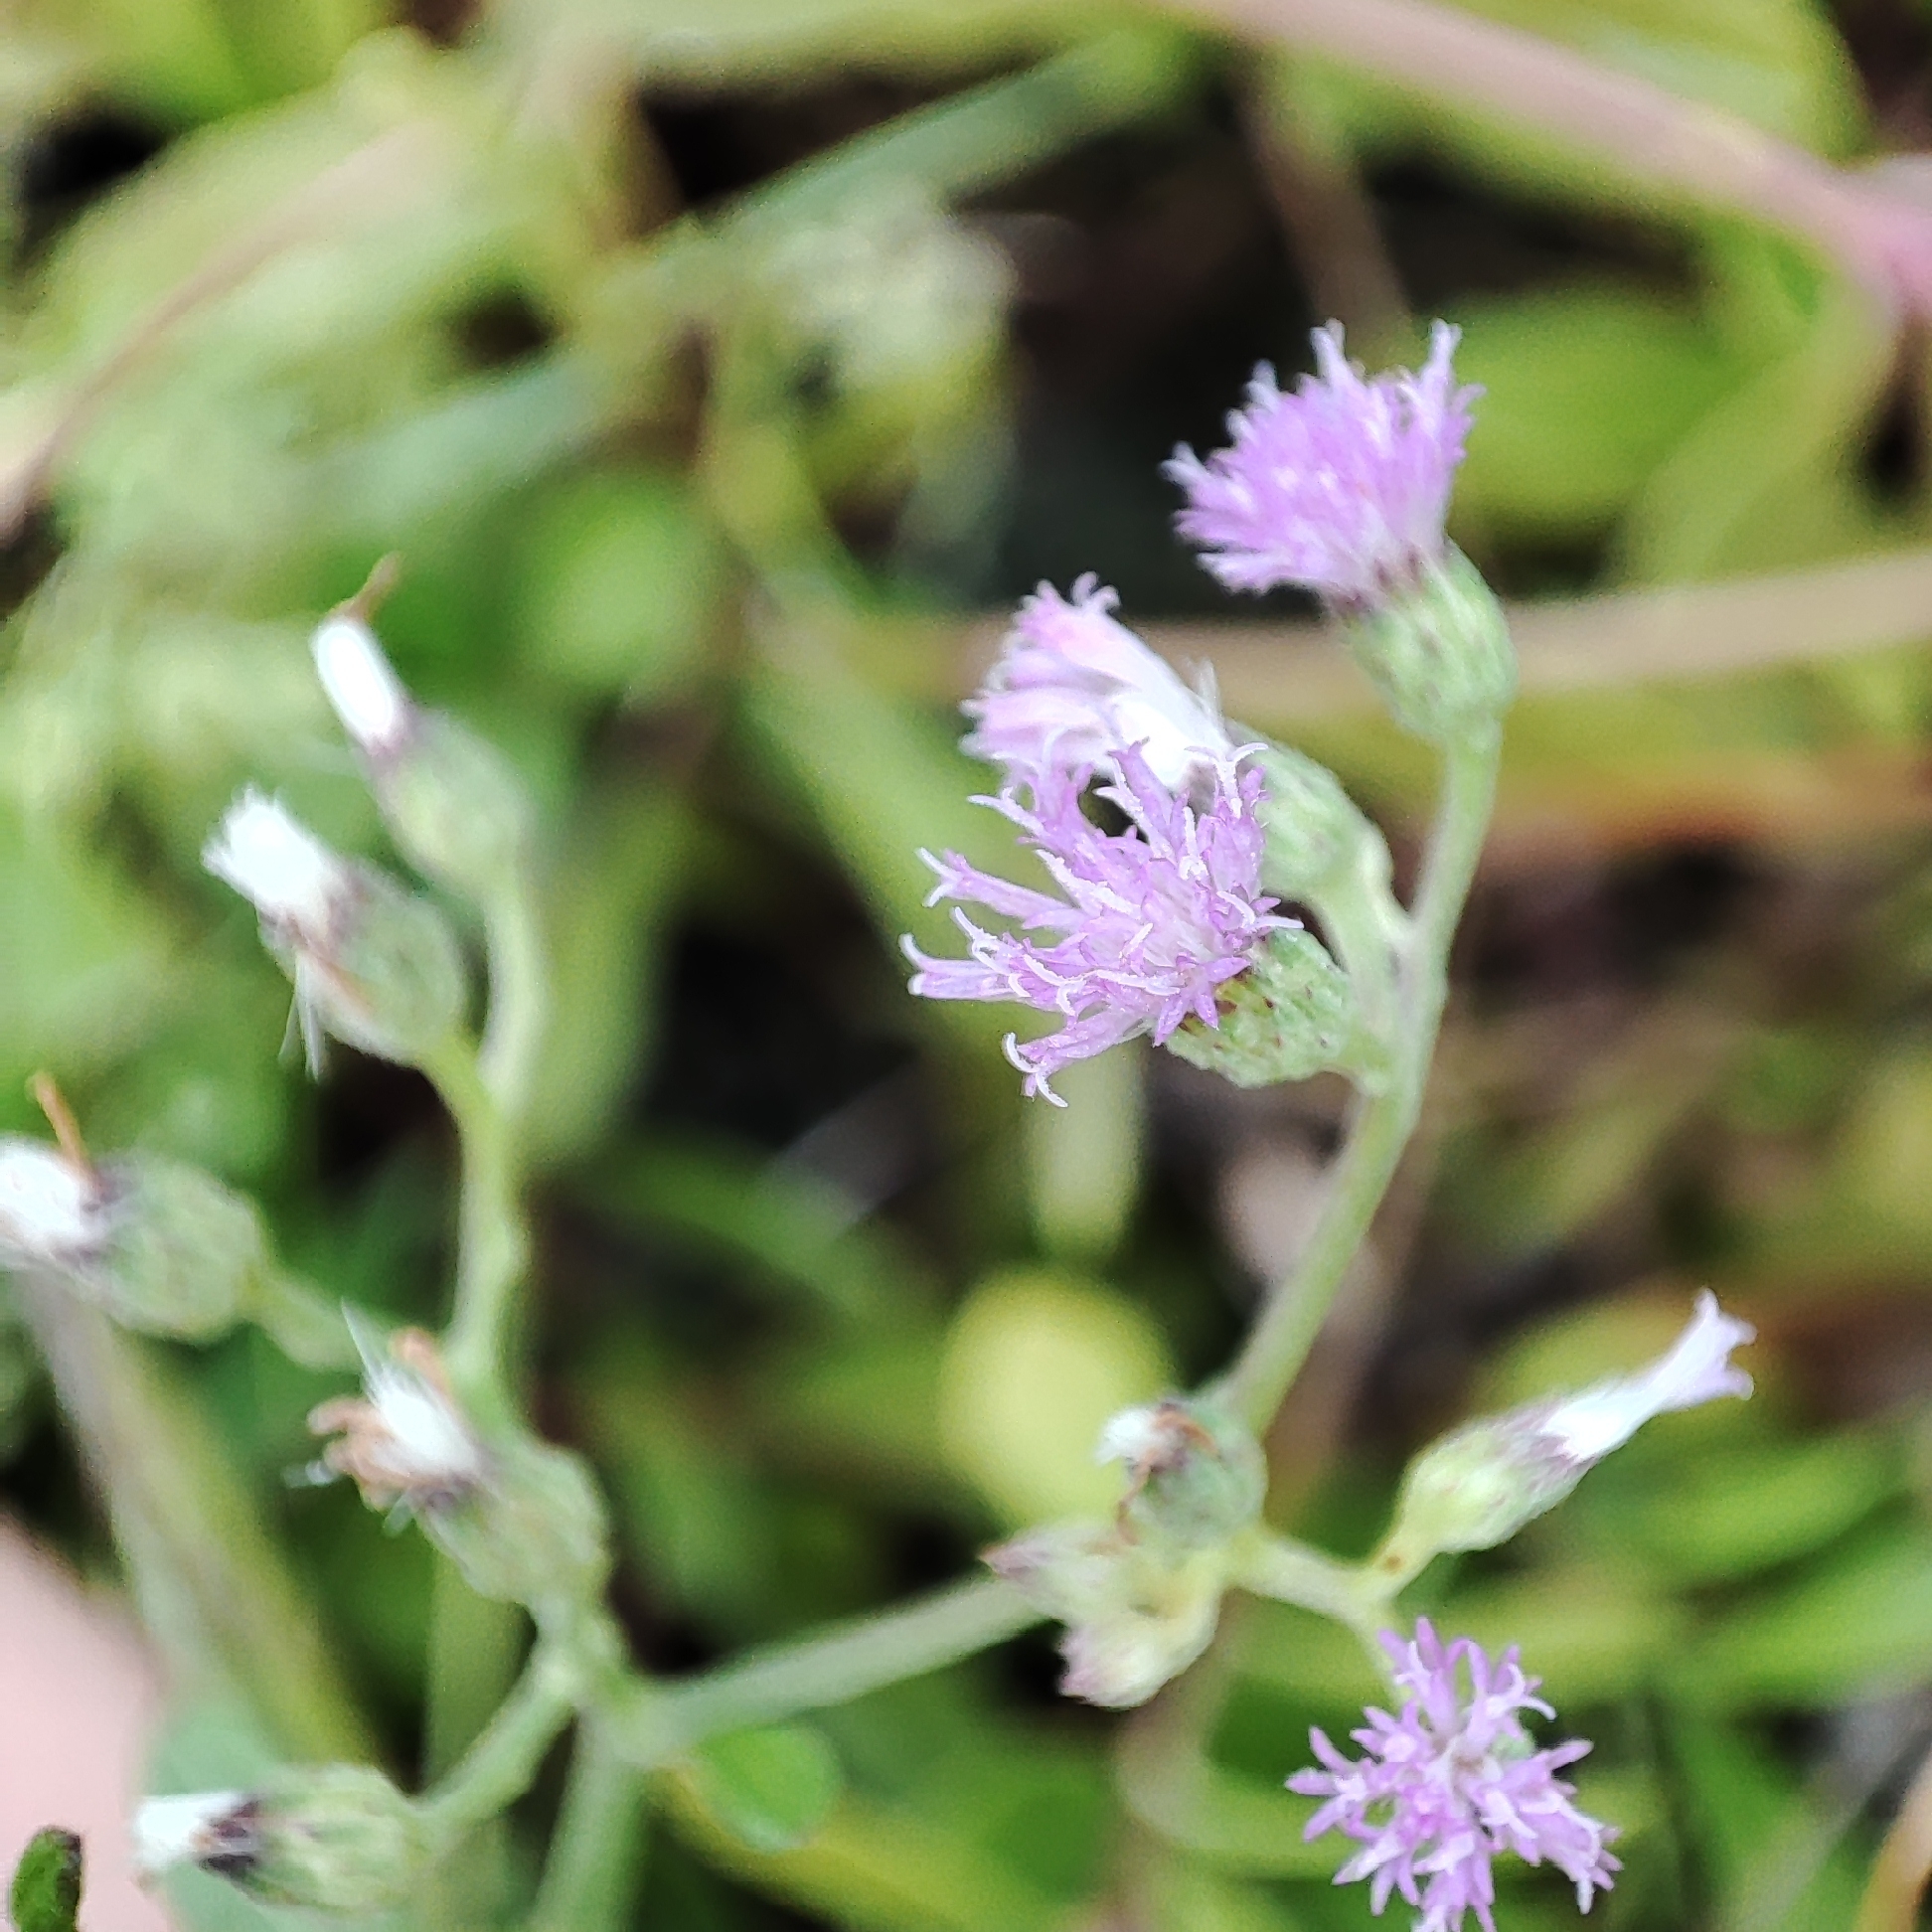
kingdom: Plantae
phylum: Tracheophyta
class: Magnoliopsida
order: Asterales
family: Asteraceae
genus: Cyanthillium
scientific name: Cyanthillium cinereum
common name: Little ironweed
